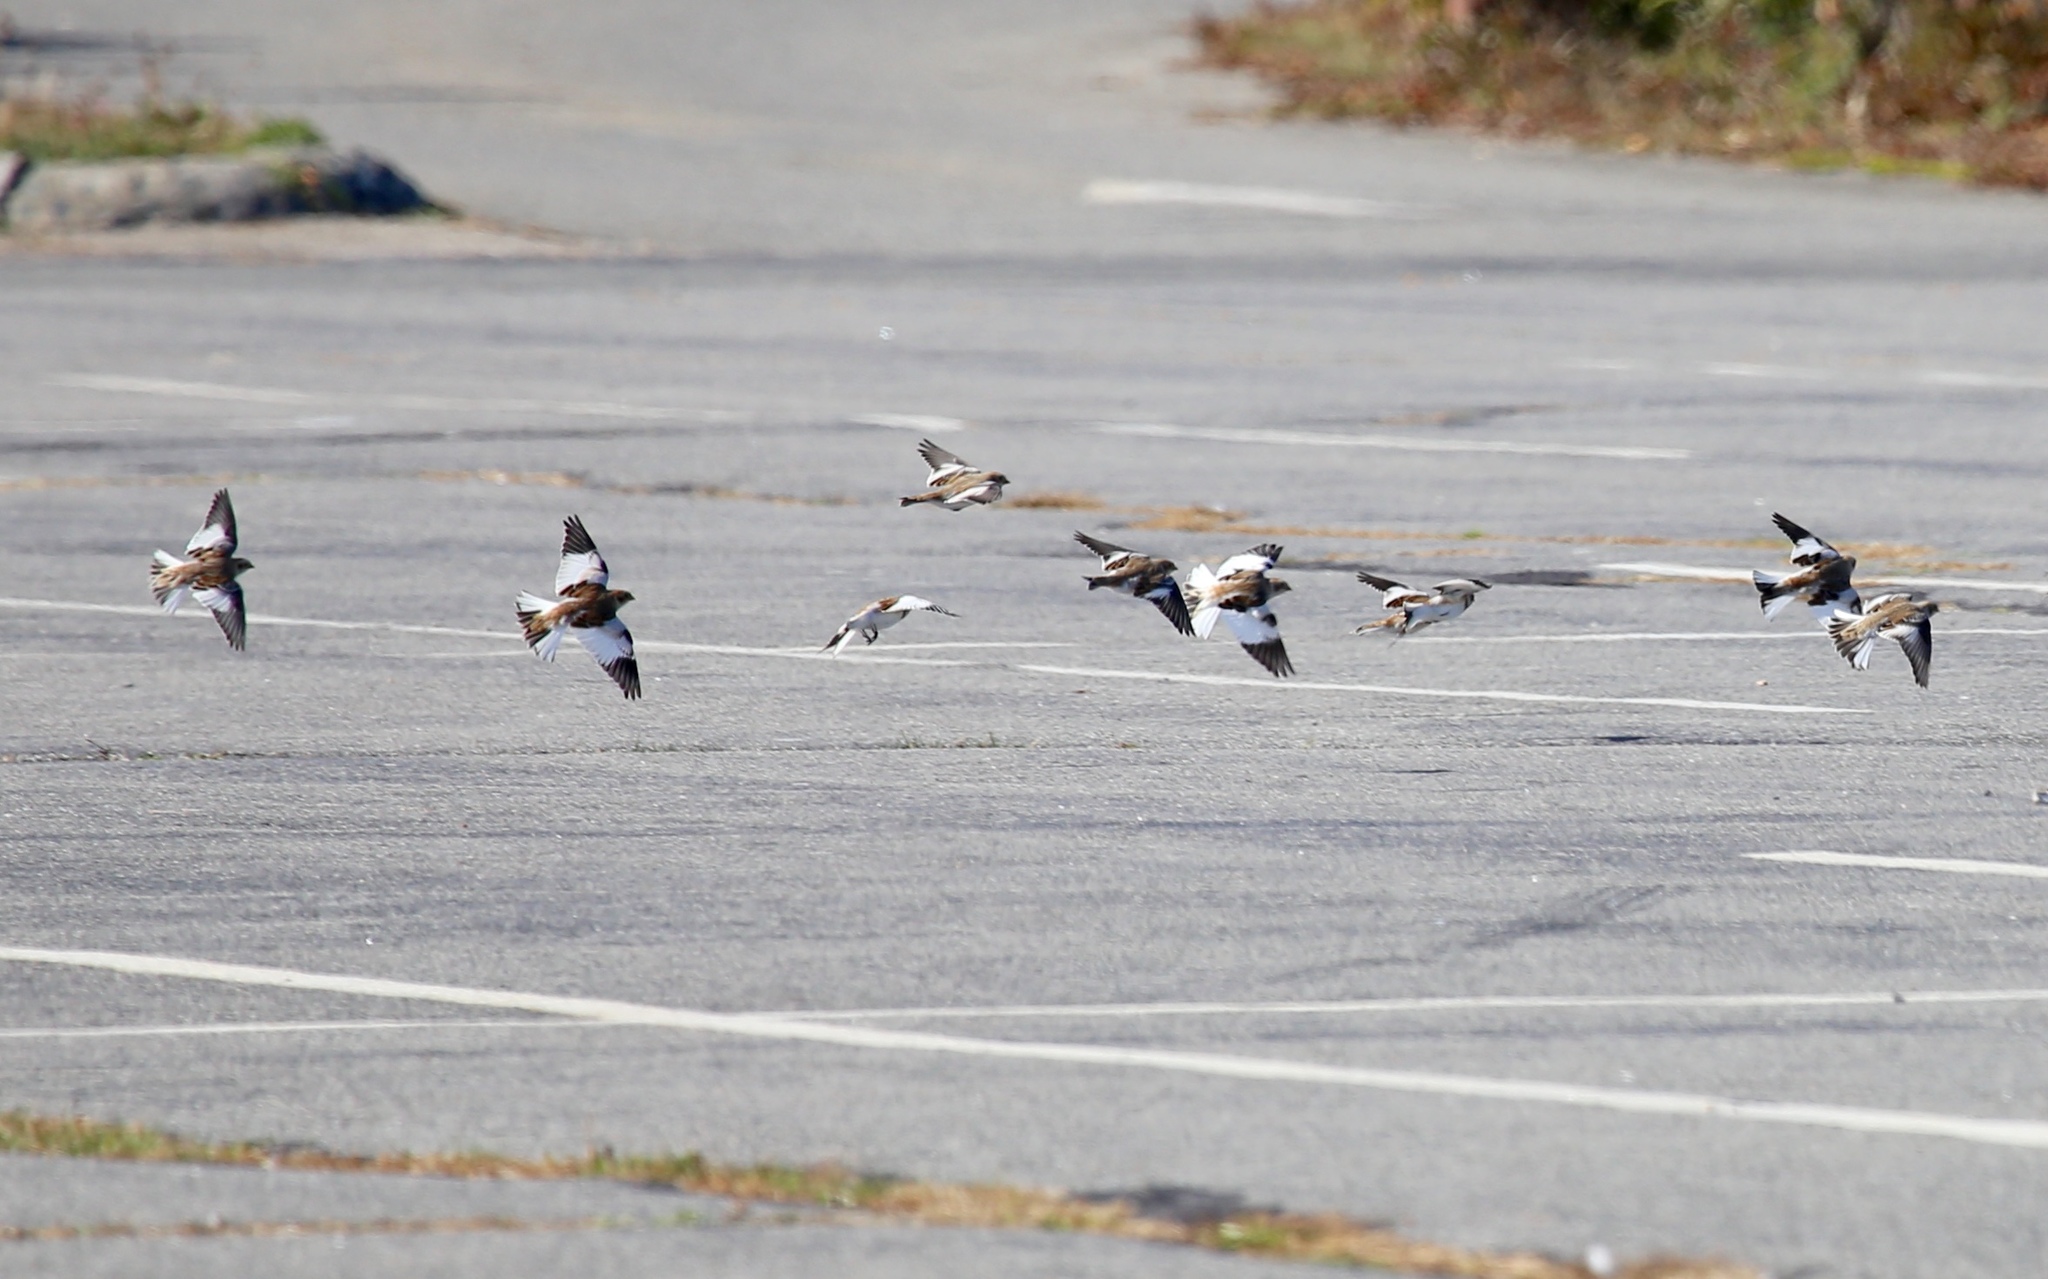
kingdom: Animalia
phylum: Chordata
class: Aves
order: Passeriformes
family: Calcariidae
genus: Plectrophenax
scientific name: Plectrophenax nivalis
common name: Snow bunting
